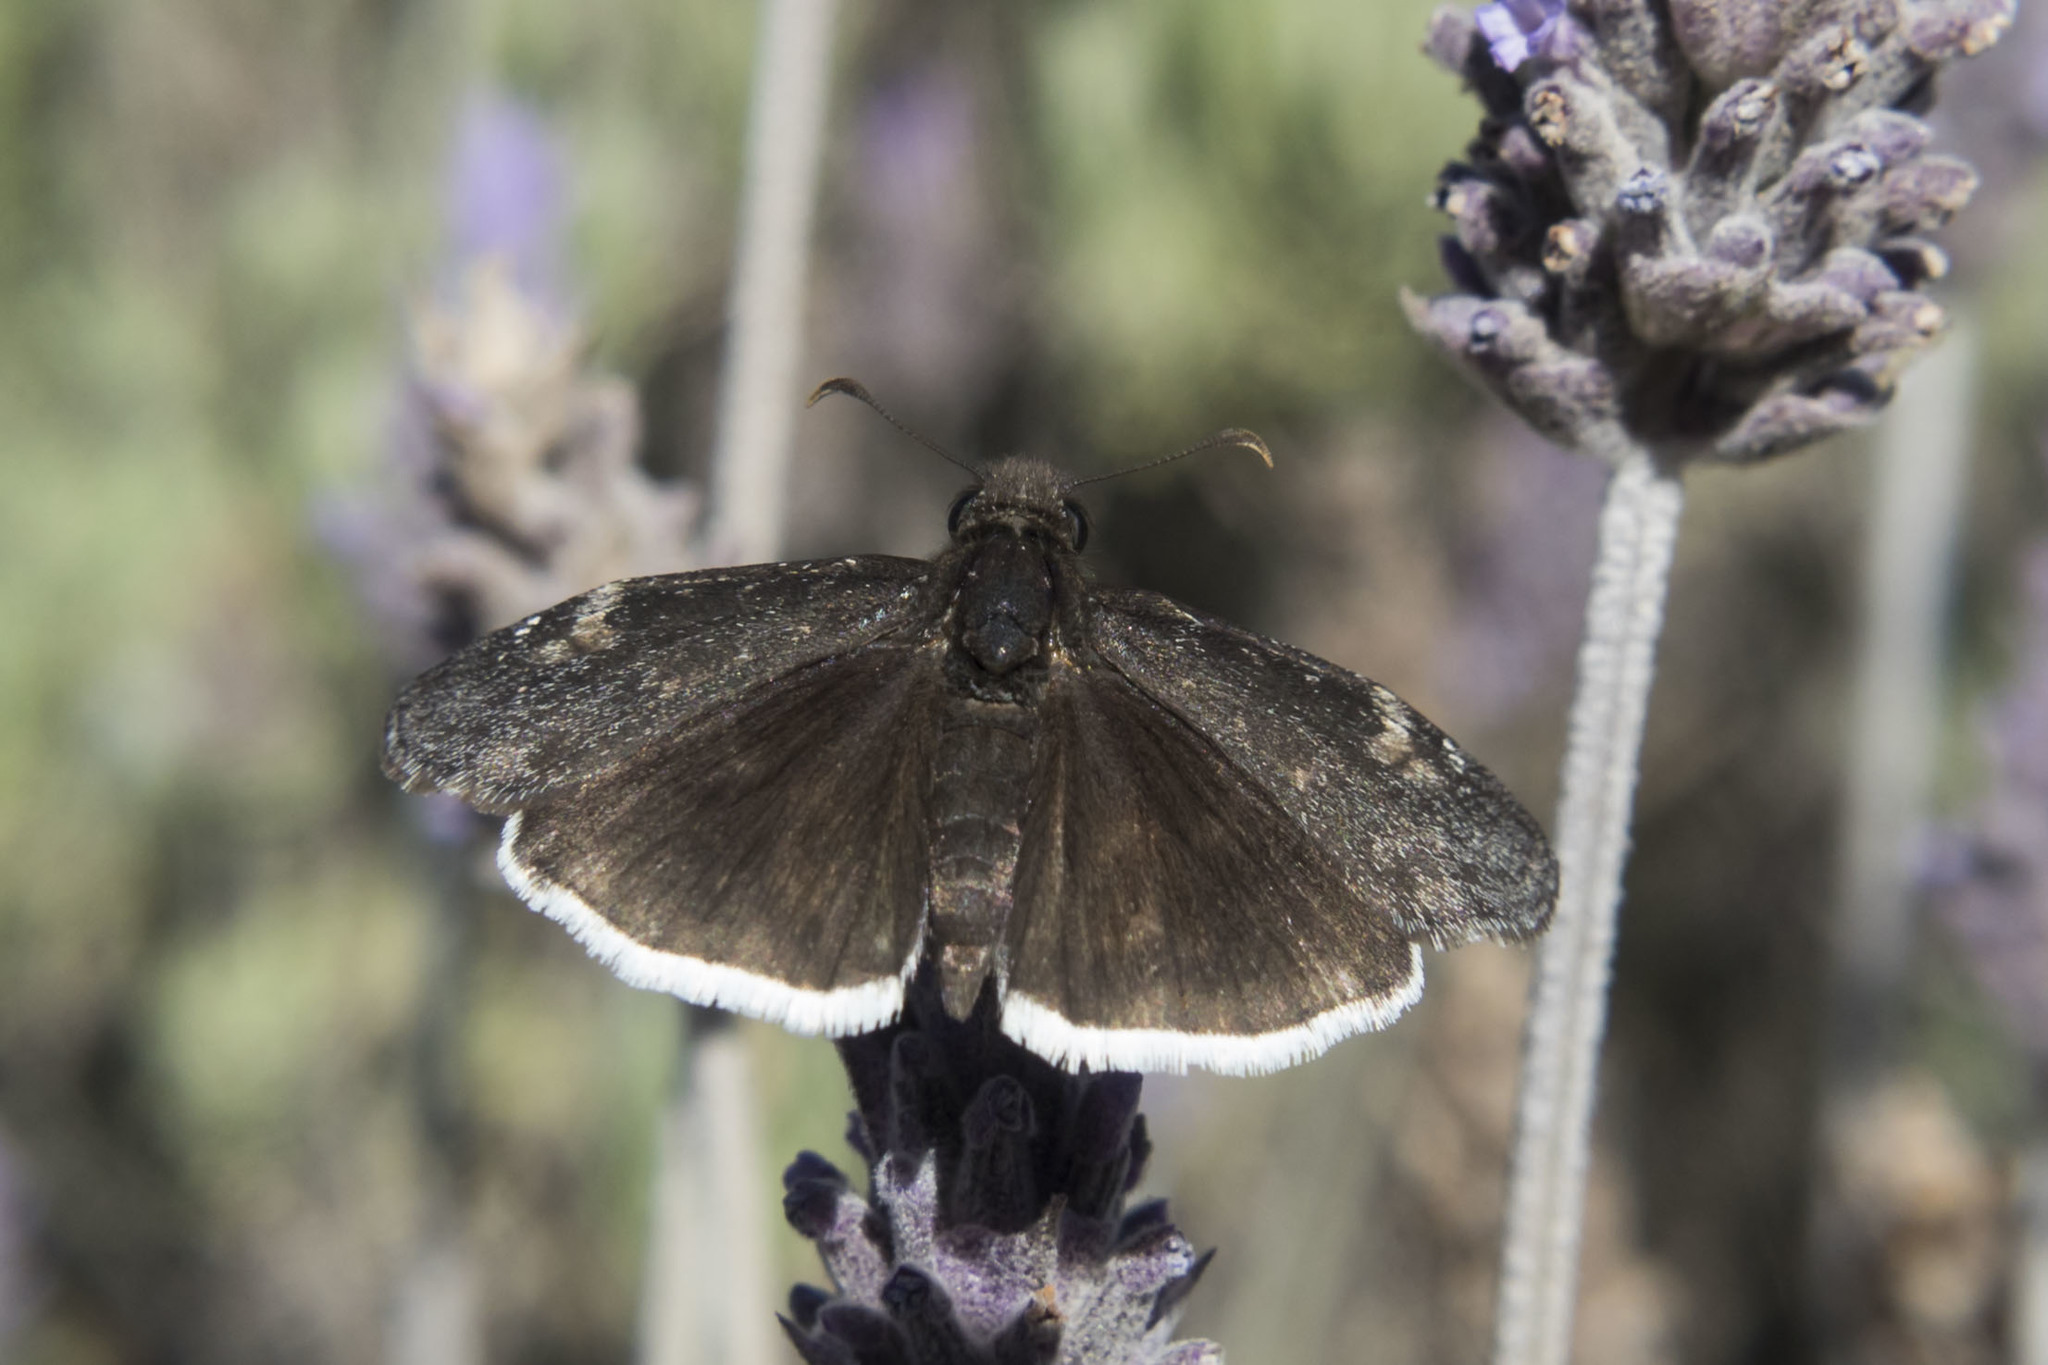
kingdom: Animalia
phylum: Arthropoda
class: Insecta
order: Lepidoptera
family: Hesperiidae
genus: Erynnis
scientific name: Erynnis funeralis
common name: Funereal duskywing
